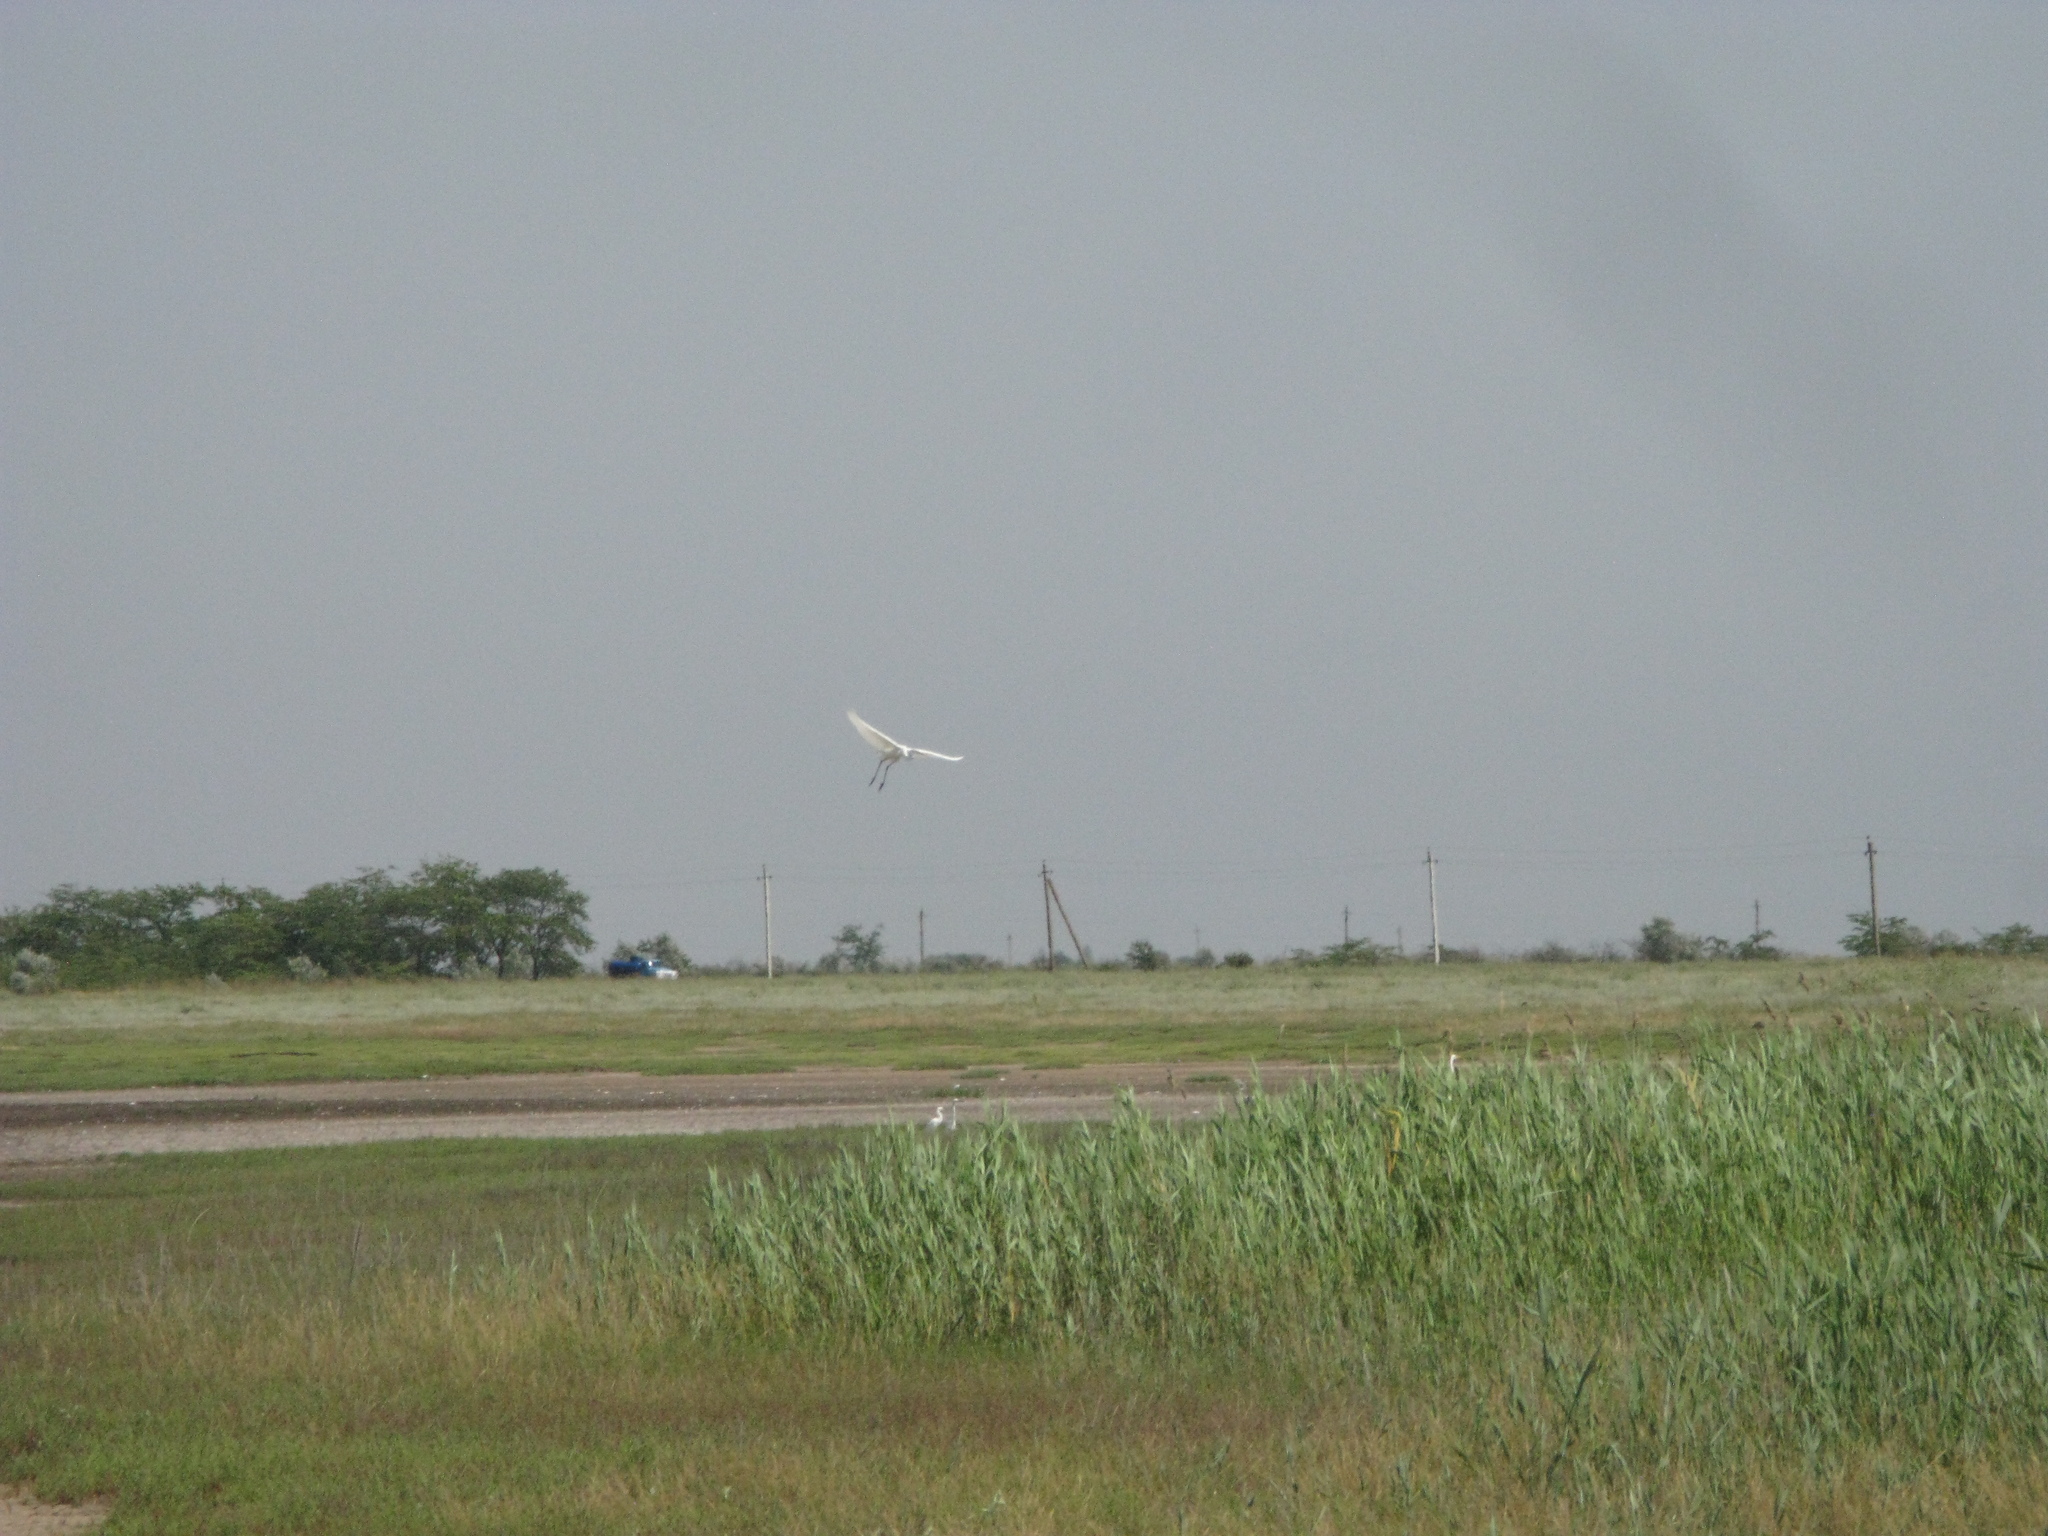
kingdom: Animalia
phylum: Chordata
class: Aves
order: Pelecaniformes
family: Ardeidae
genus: Ardea
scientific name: Ardea alba
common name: Great egret
